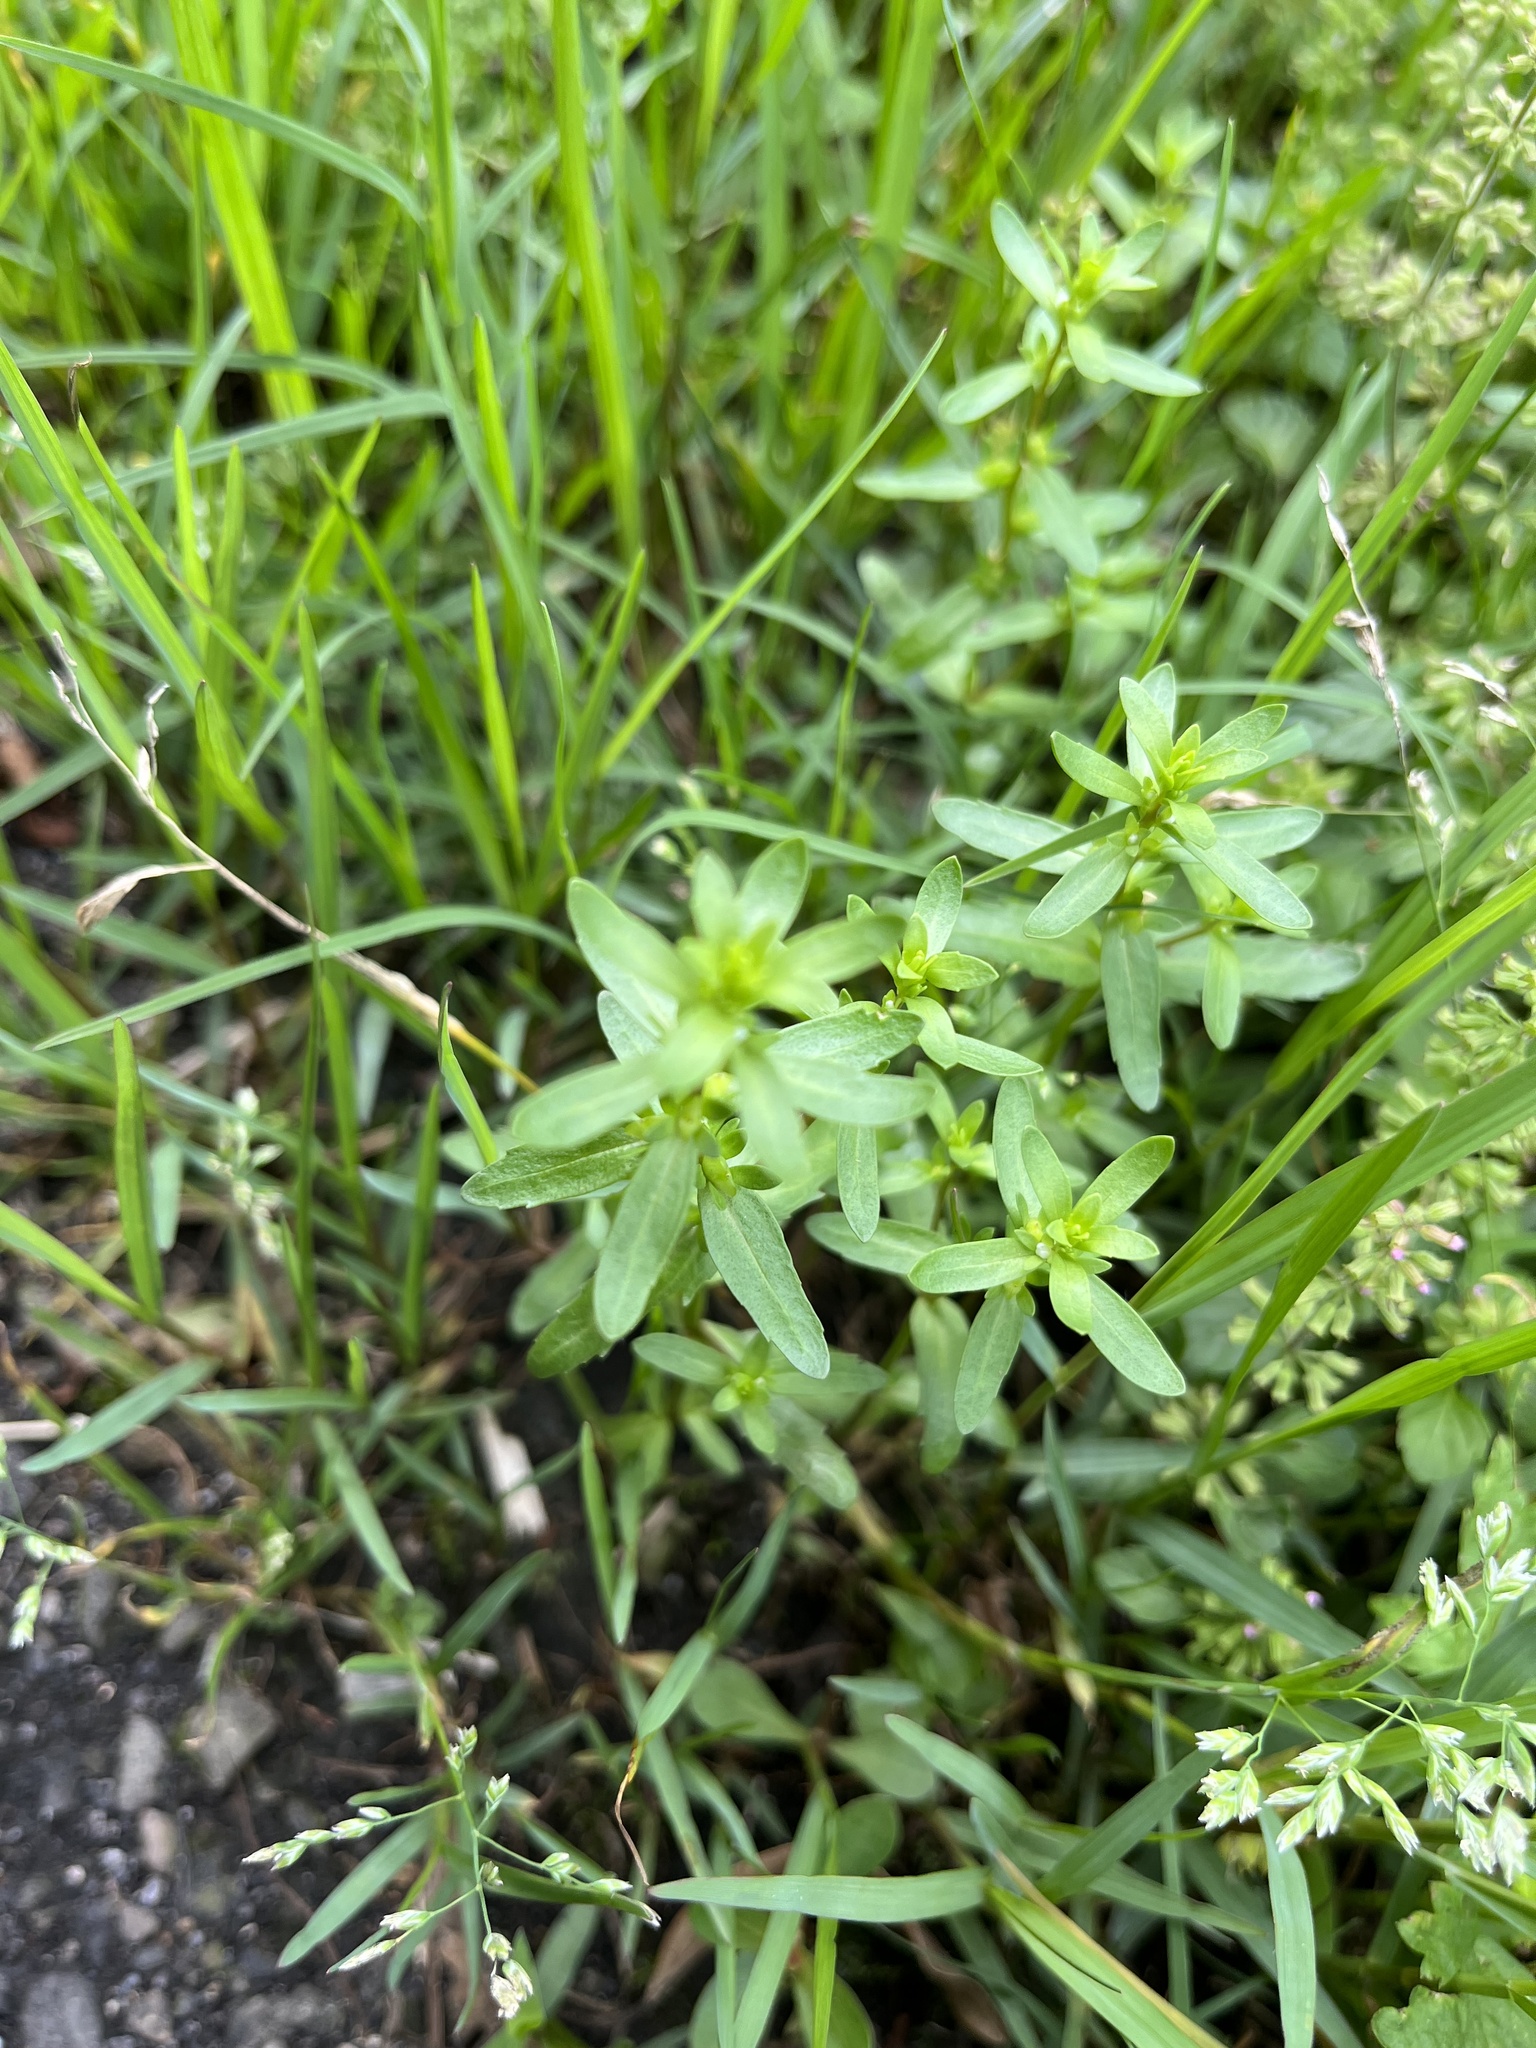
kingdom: Plantae
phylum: Tracheophyta
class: Magnoliopsida
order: Lamiales
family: Plantaginaceae
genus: Veronica
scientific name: Veronica peregrina
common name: Neckweed
